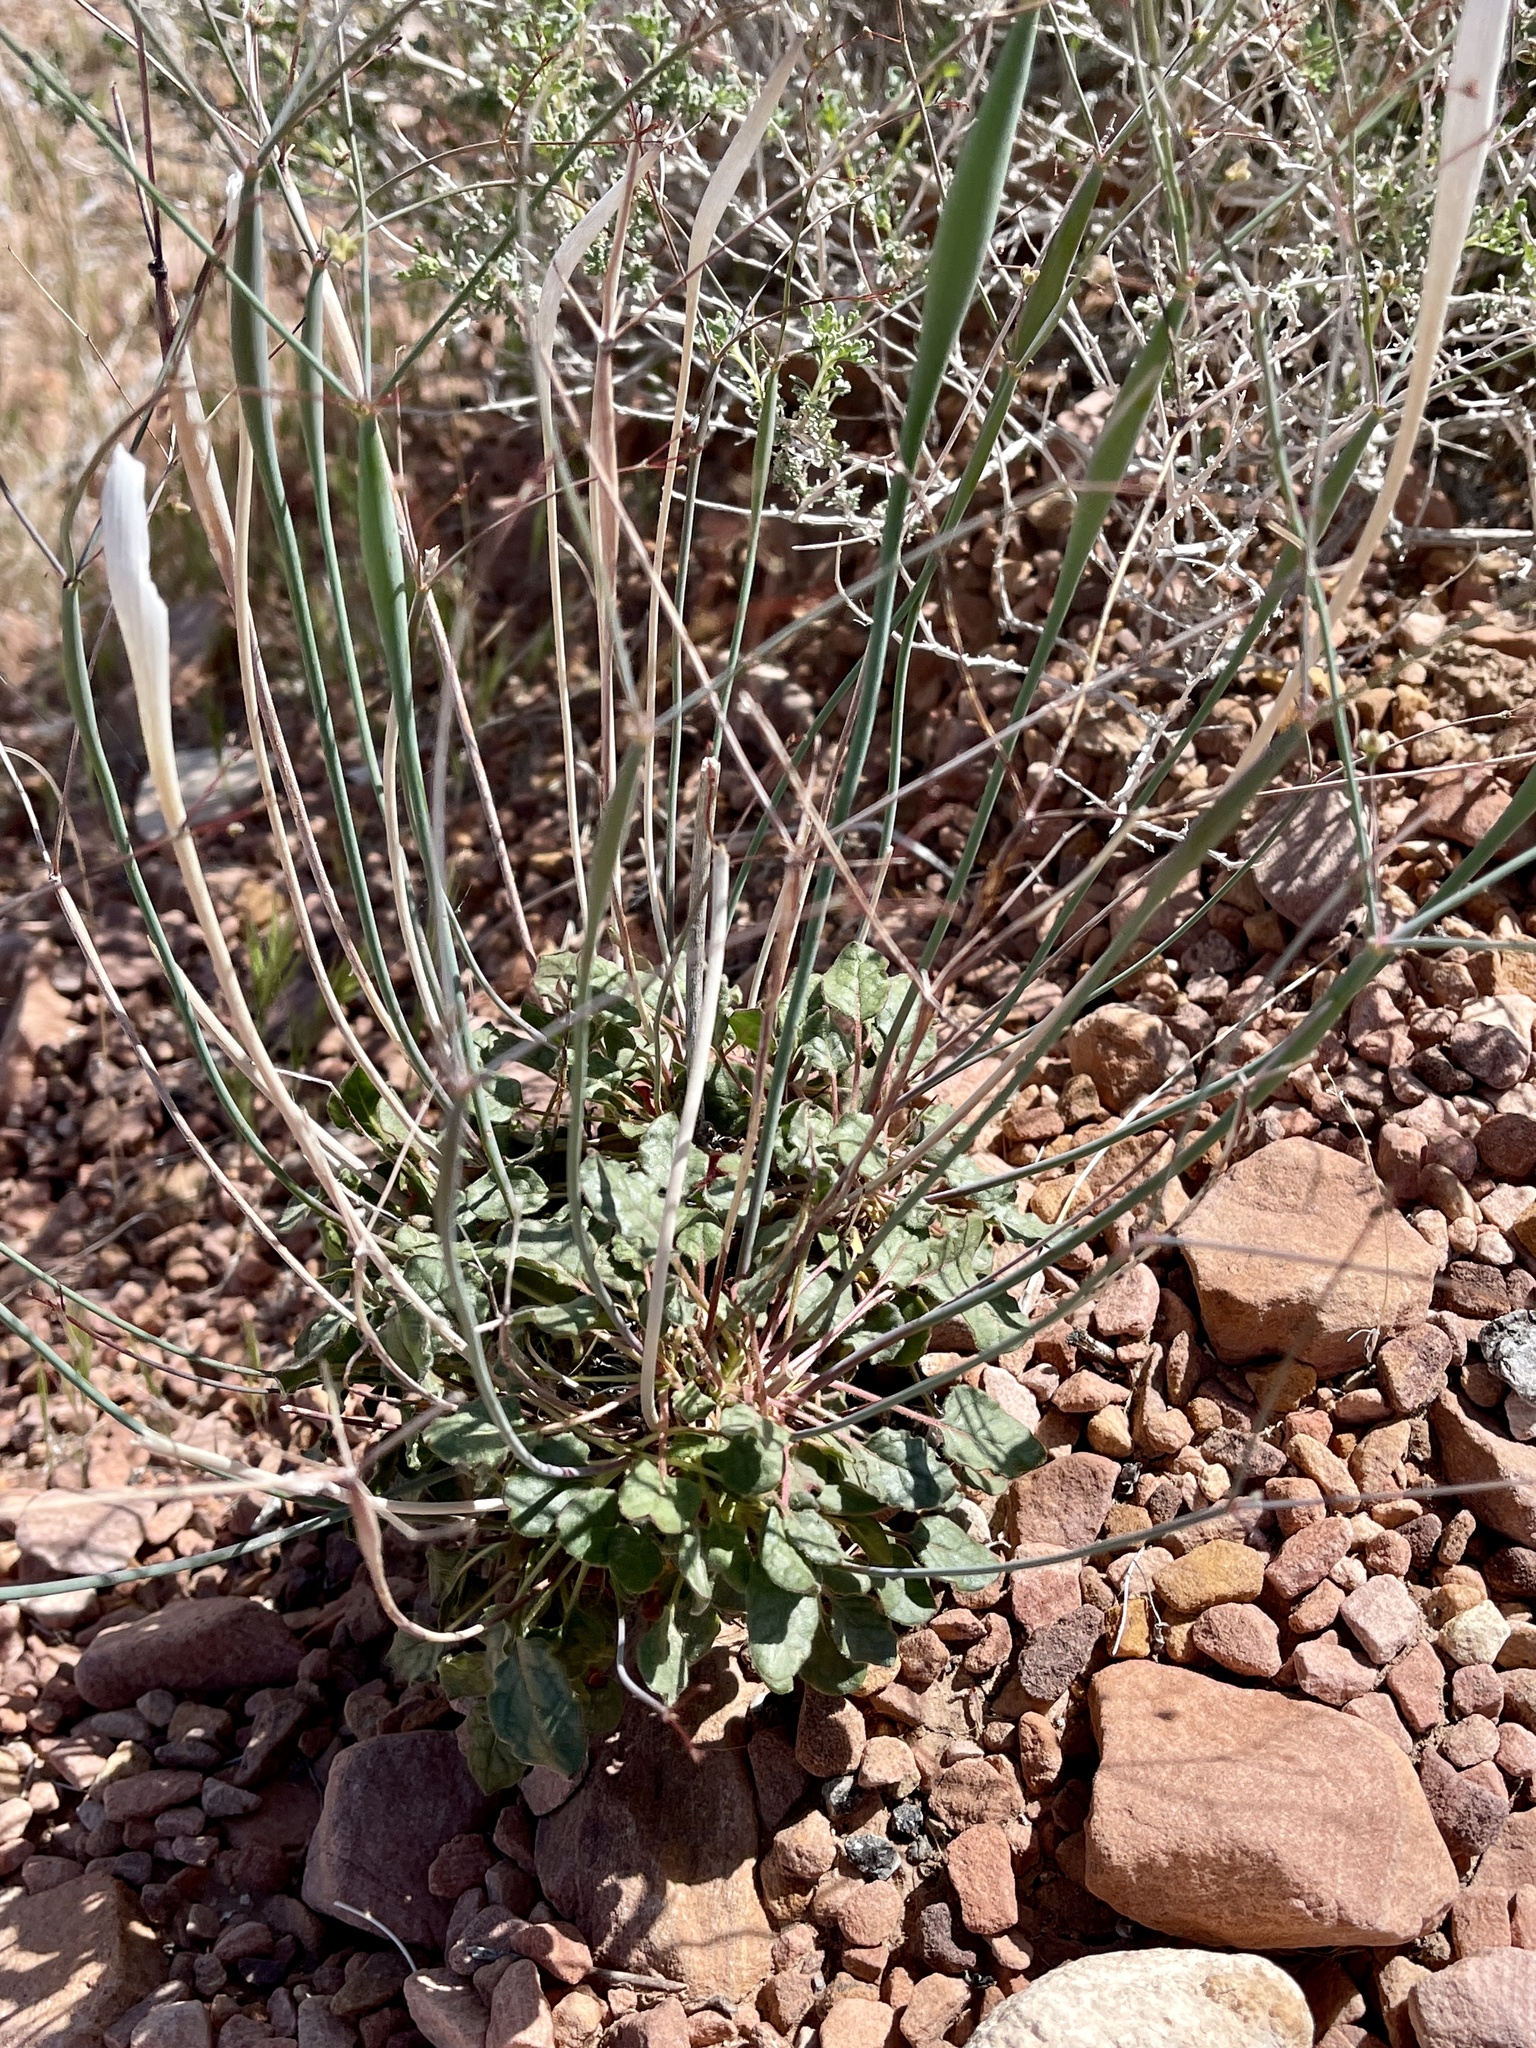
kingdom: Plantae
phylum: Tracheophyta
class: Magnoliopsida
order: Caryophyllales
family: Polygonaceae
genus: Eriogonum
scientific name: Eriogonum inflatum
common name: Desert trumpet
